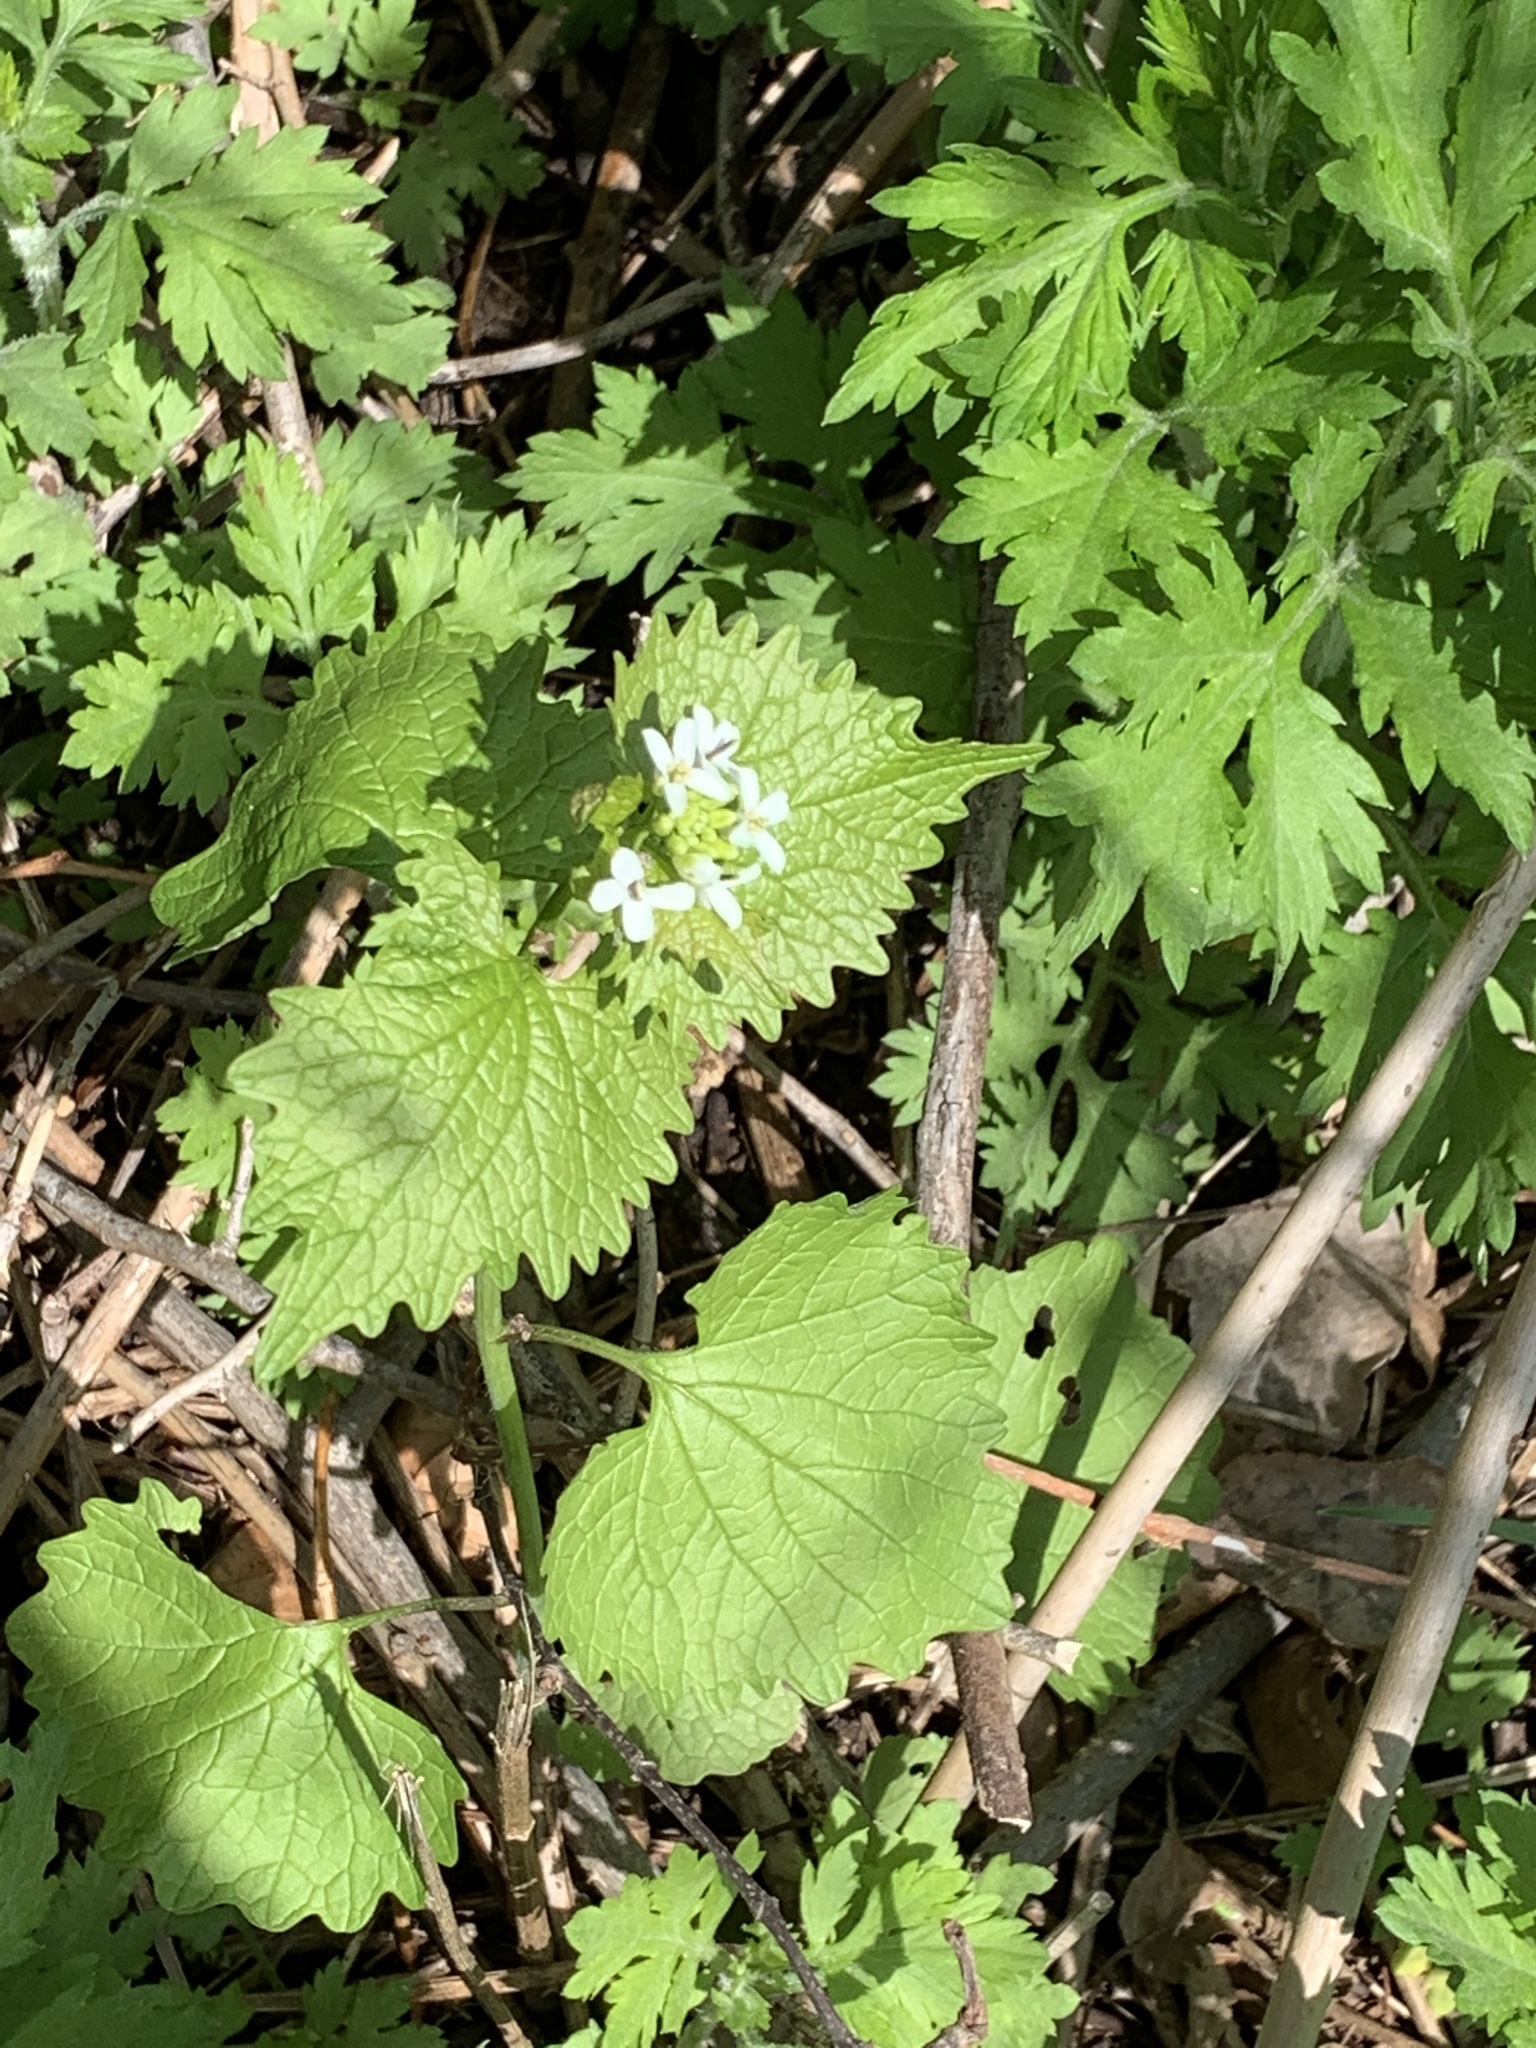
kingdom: Plantae
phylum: Tracheophyta
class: Magnoliopsida
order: Brassicales
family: Brassicaceae
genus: Alliaria
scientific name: Alliaria petiolata
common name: Garlic mustard
